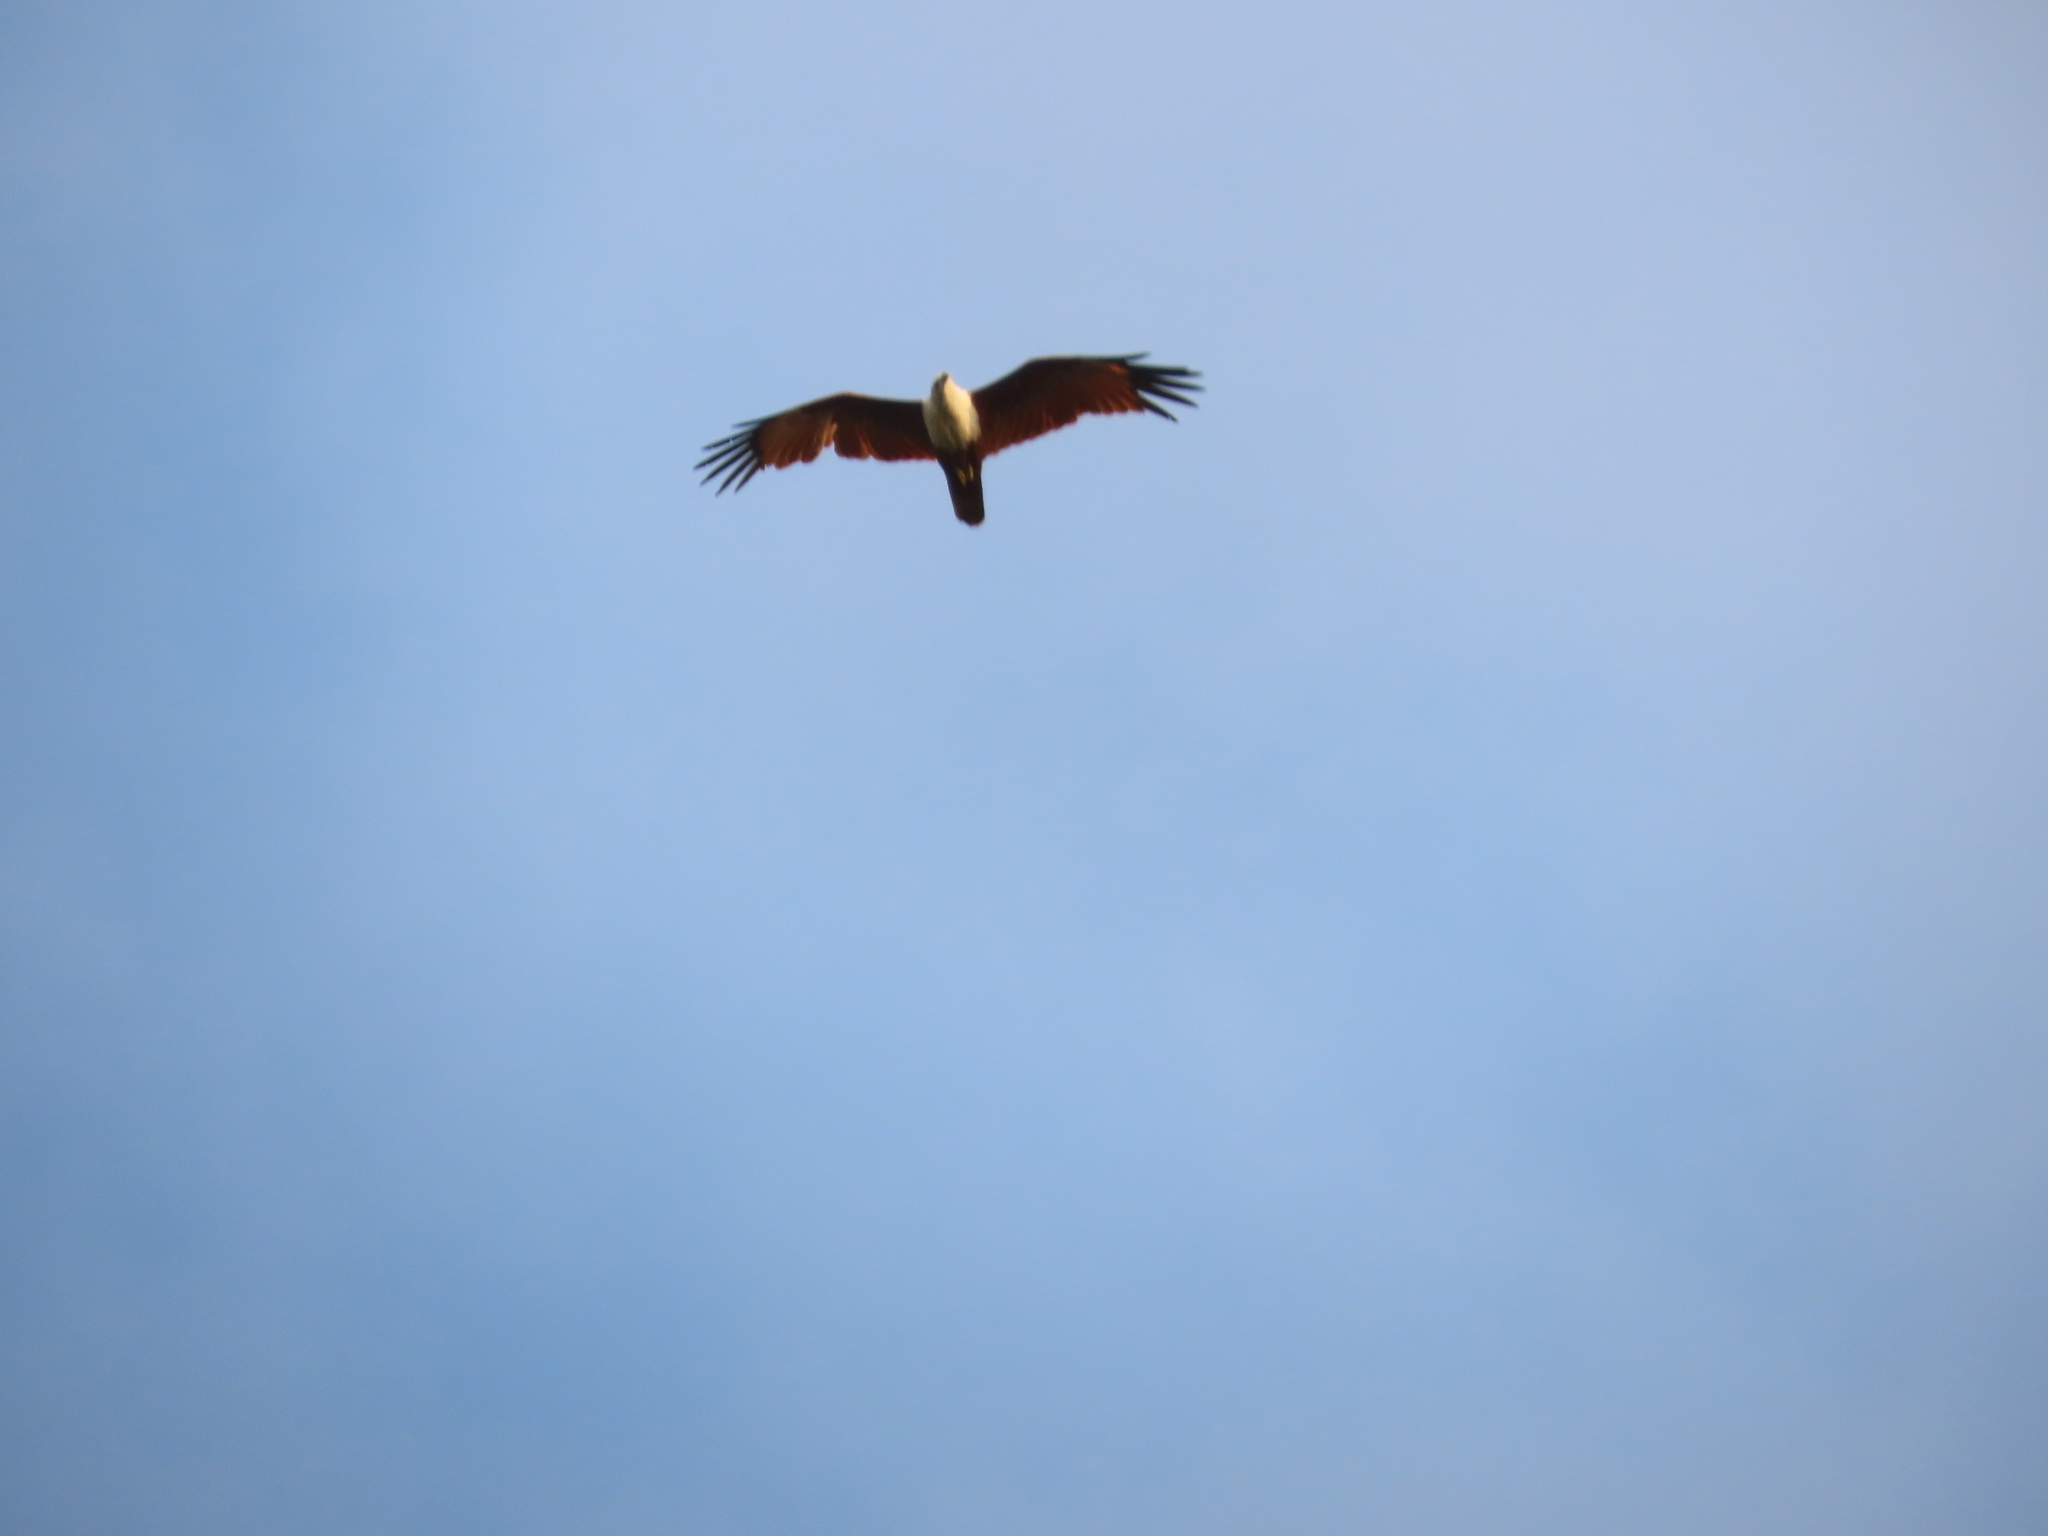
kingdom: Animalia
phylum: Chordata
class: Aves
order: Accipitriformes
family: Accipitridae
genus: Haliastur
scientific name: Haliastur indus
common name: Brahminy kite
